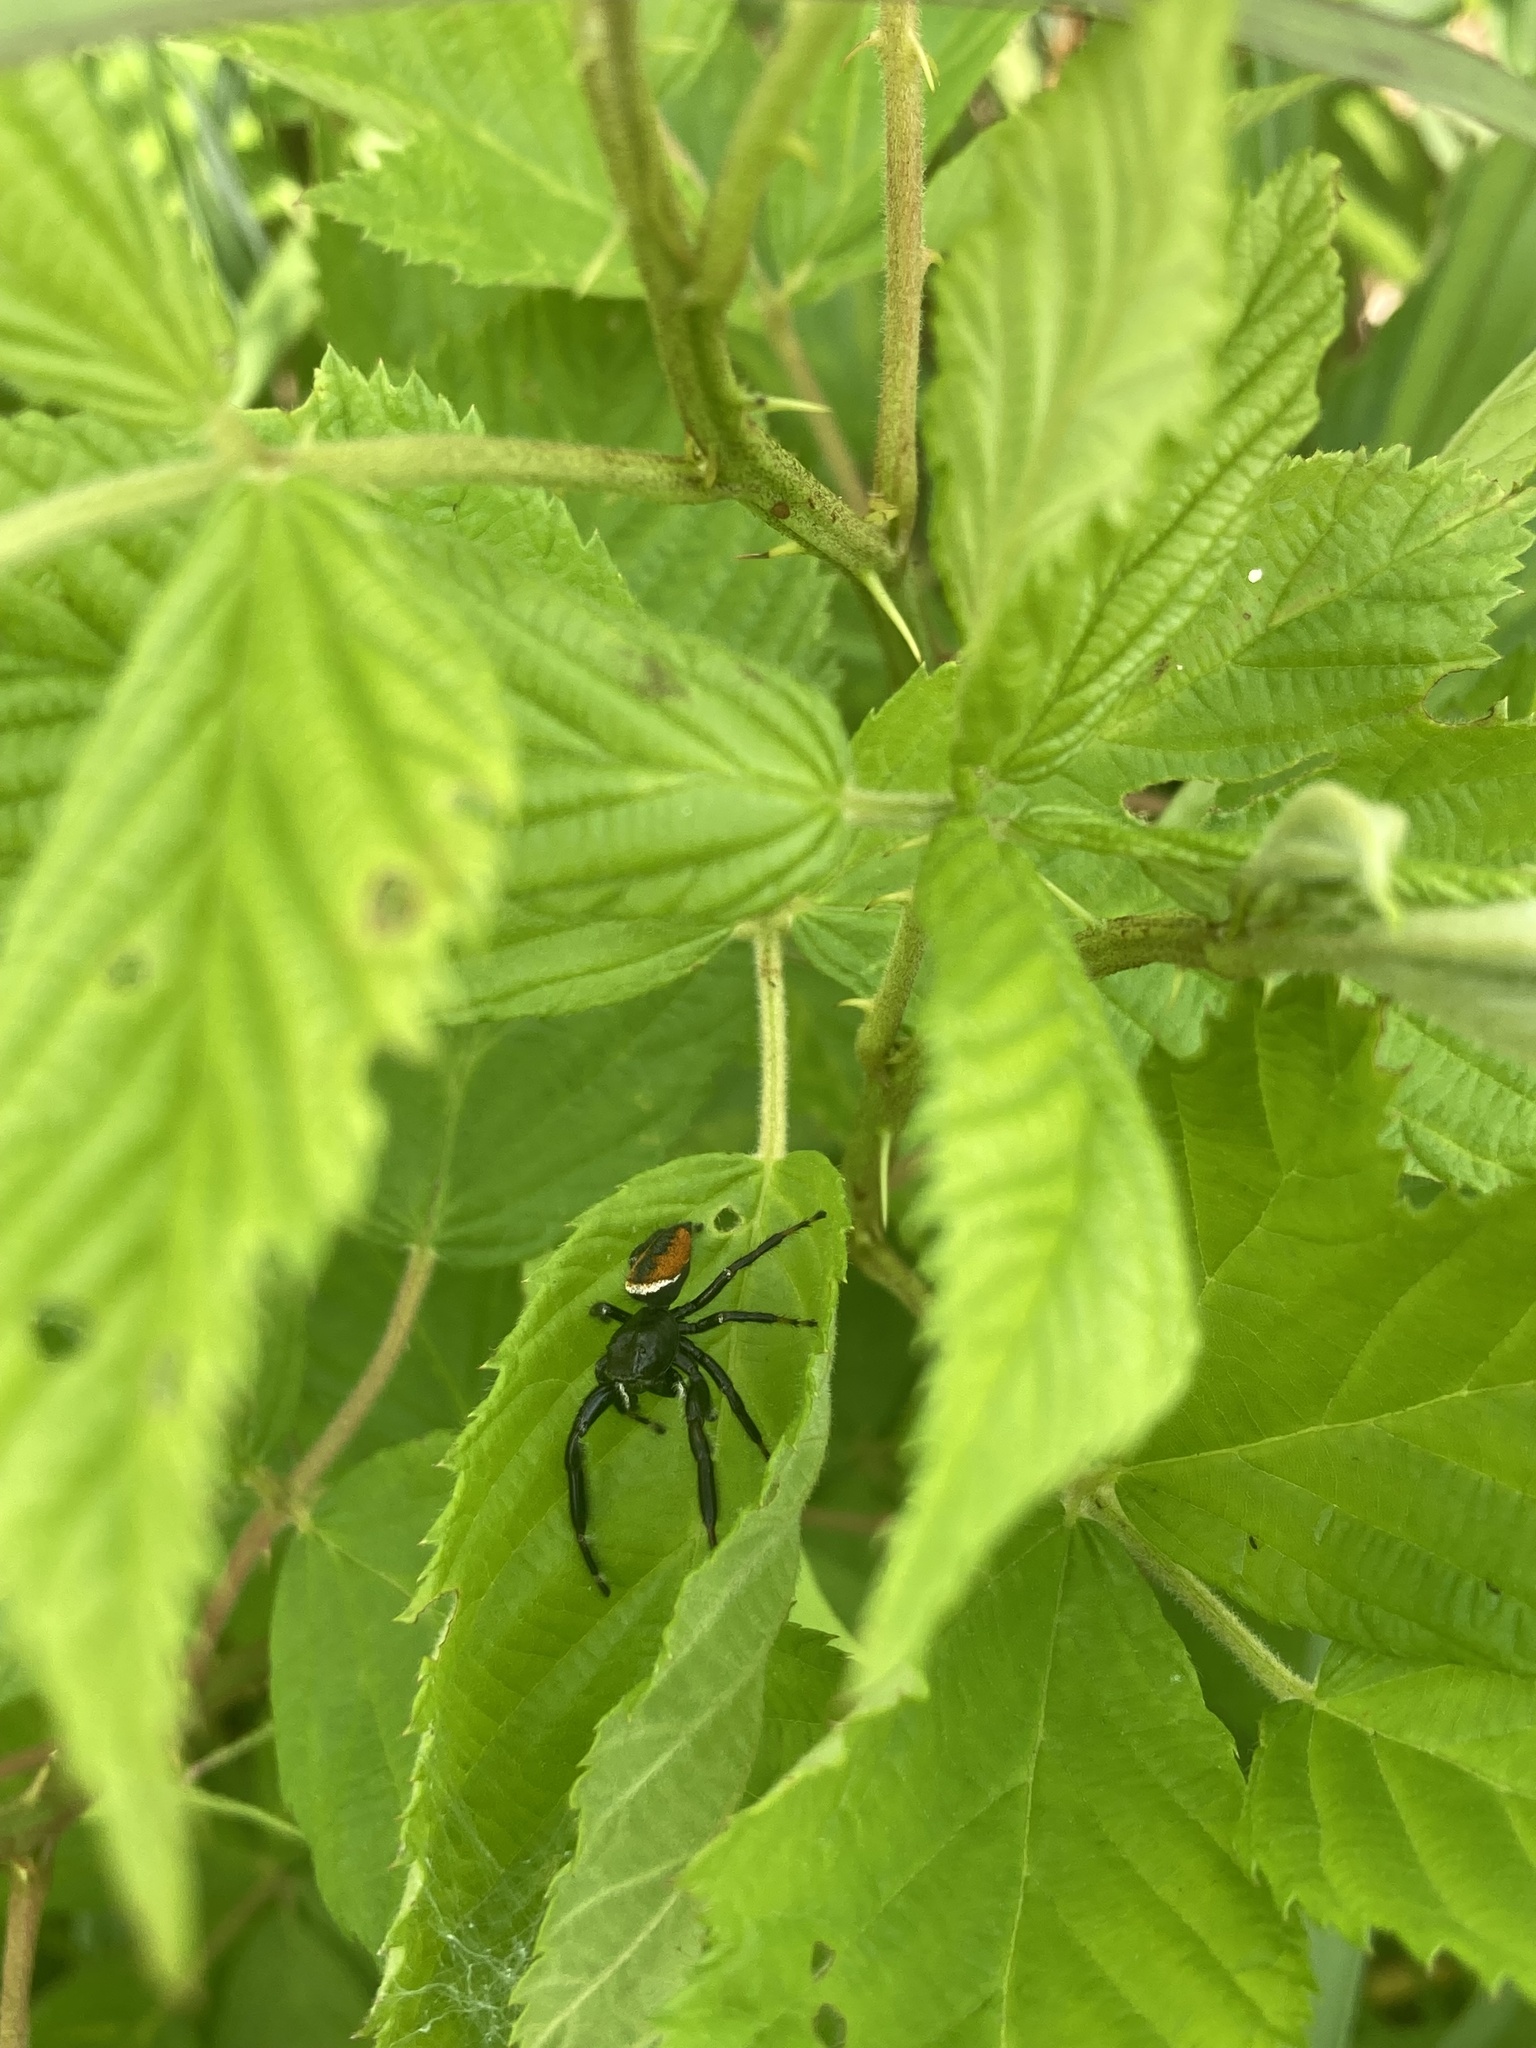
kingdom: Animalia
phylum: Arthropoda
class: Arachnida
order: Araneae
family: Salticidae
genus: Phidippus
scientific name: Phidippus clarus
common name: Brilliant jumping spider
